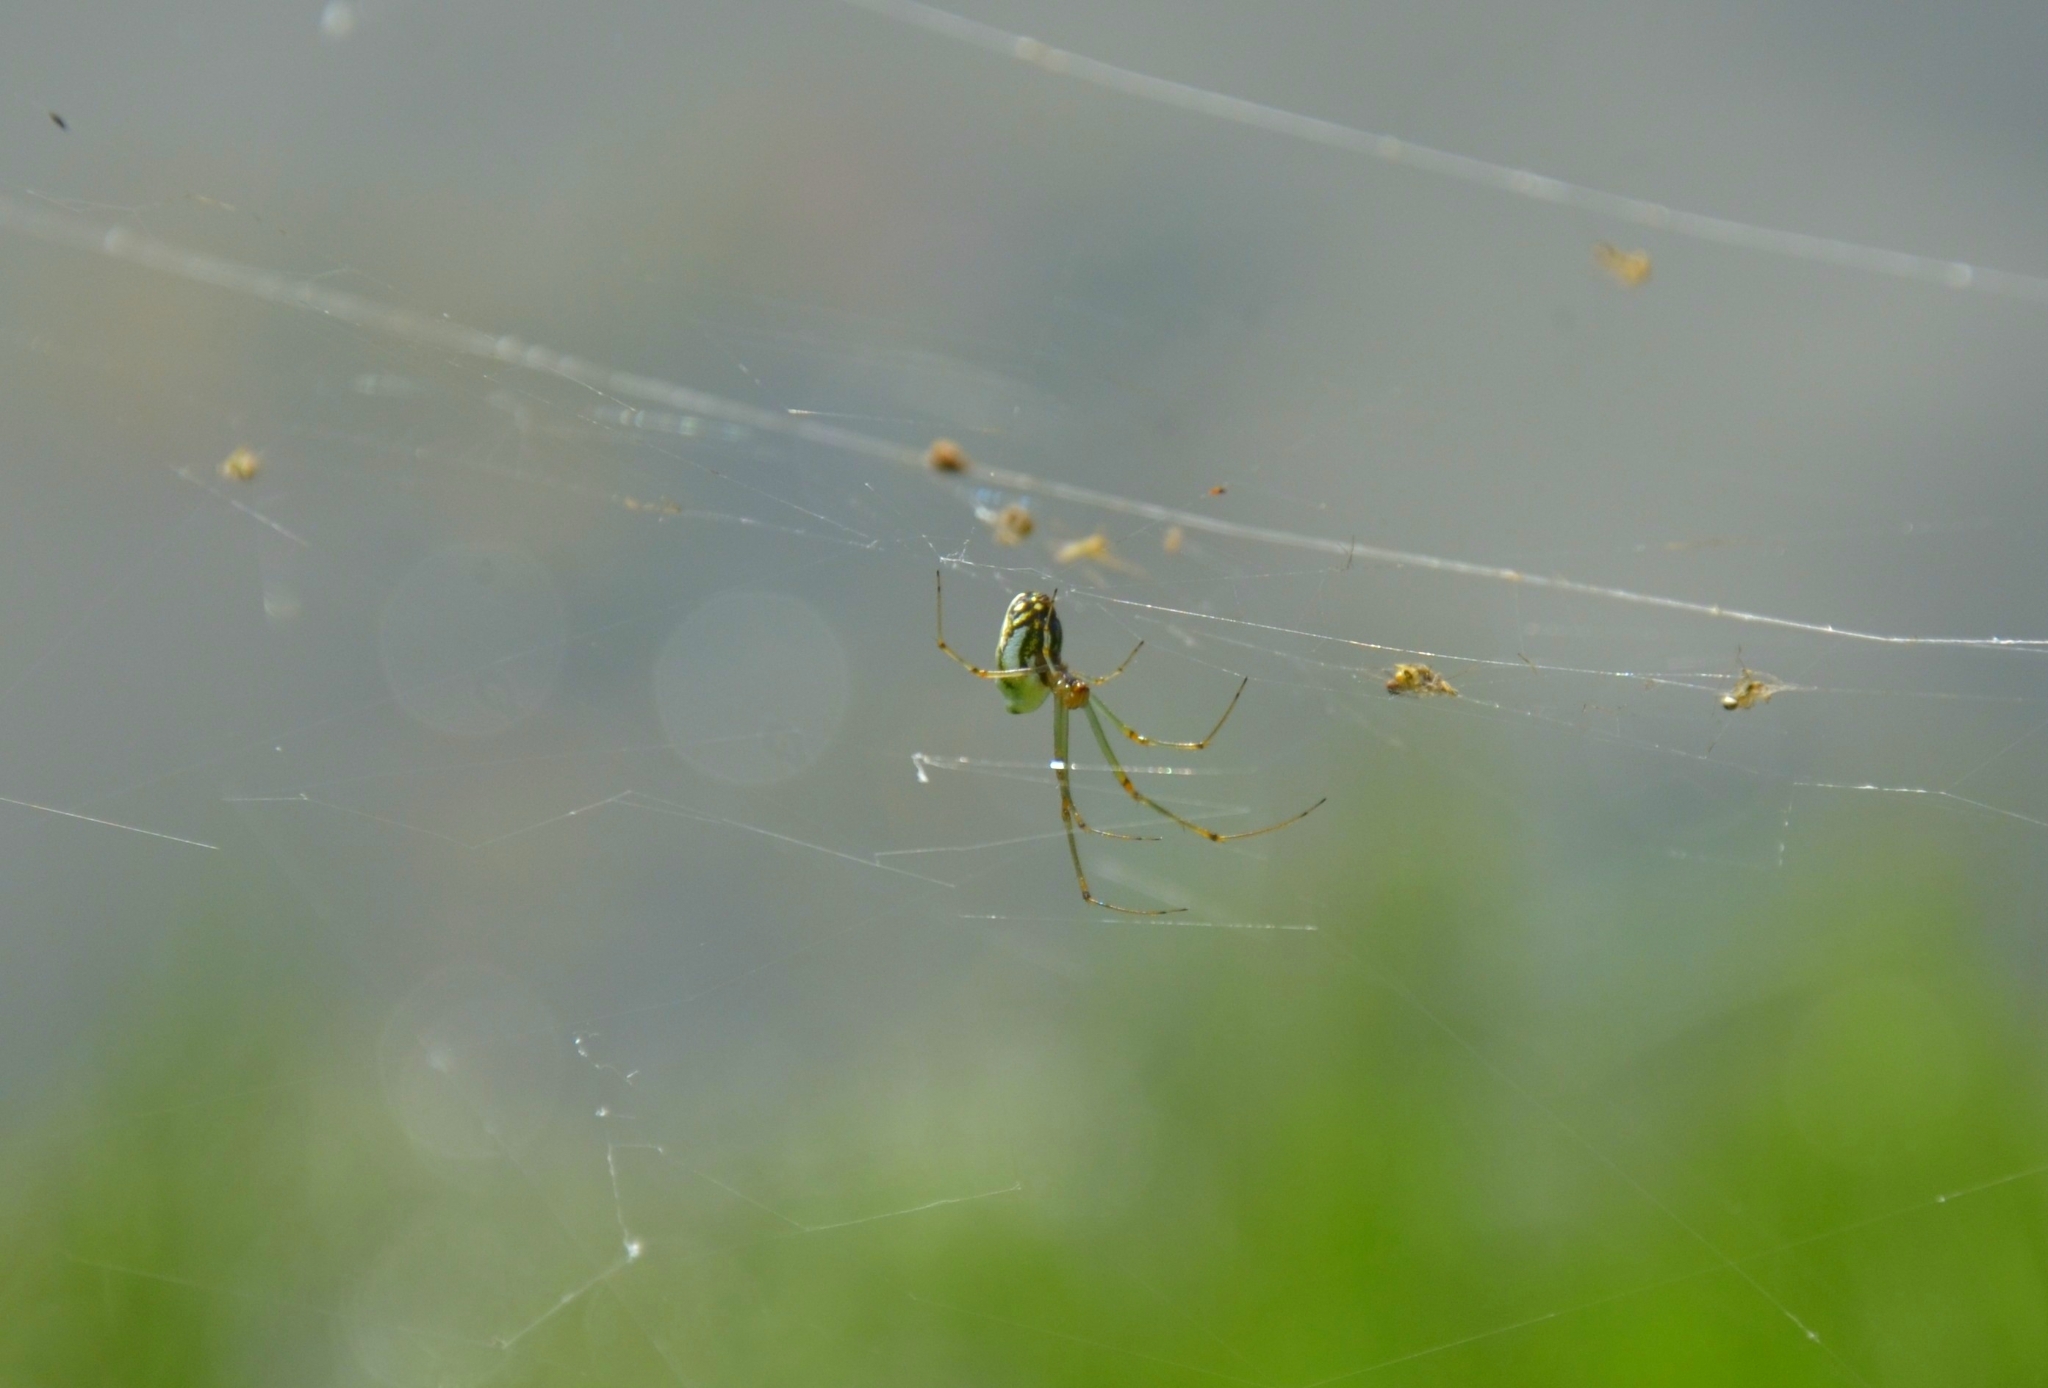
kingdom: Animalia
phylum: Arthropoda
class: Arachnida
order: Araneae
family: Tetragnathidae
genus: Leucauge
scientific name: Leucauge decorata
